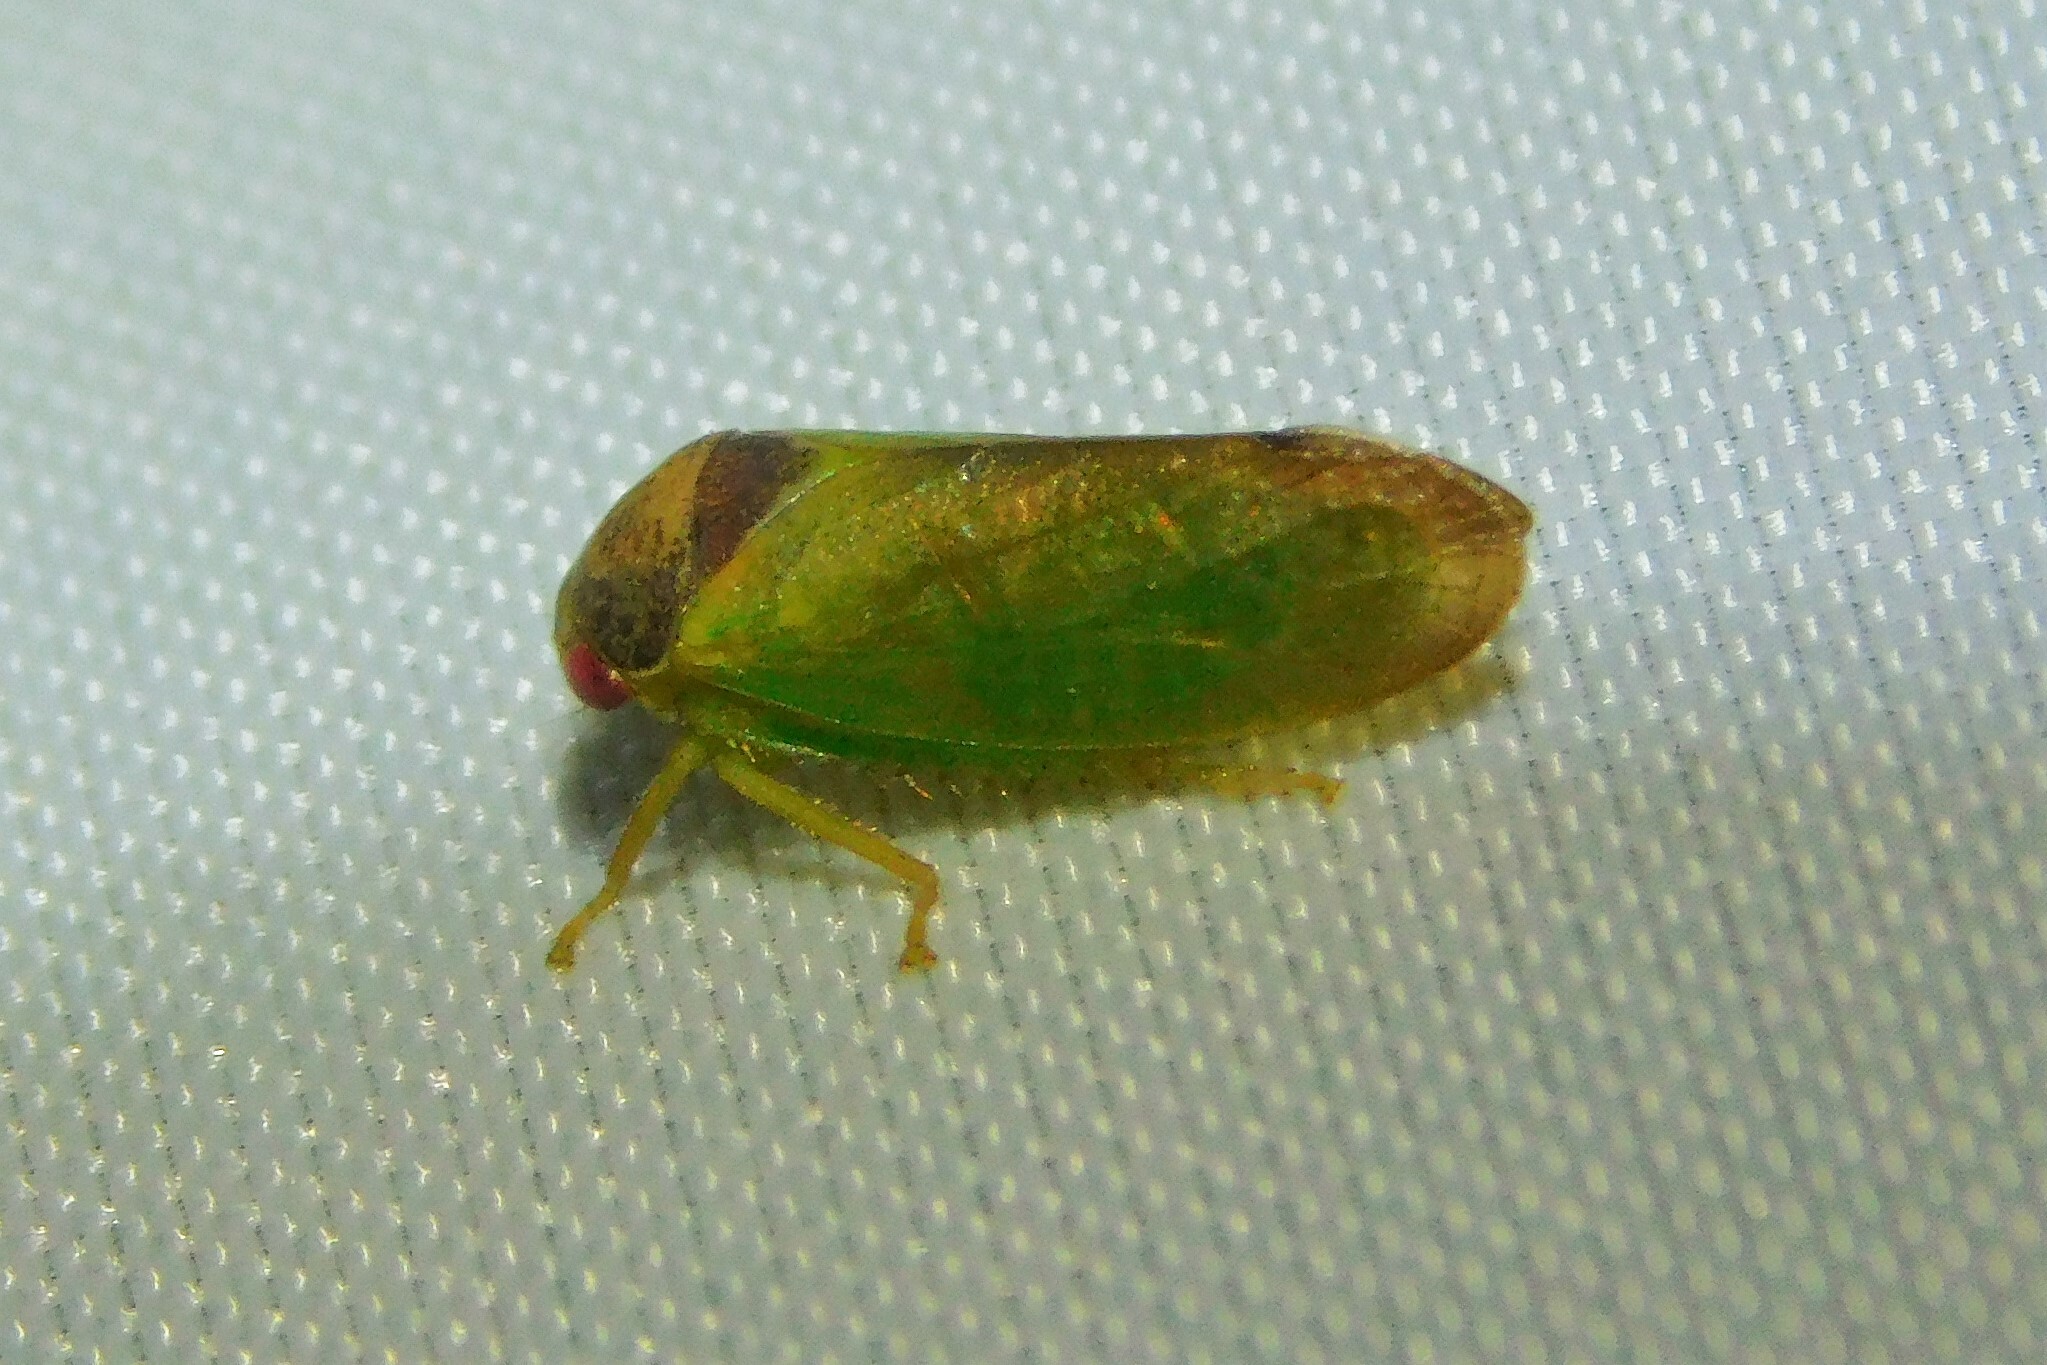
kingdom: Animalia
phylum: Arthropoda
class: Insecta
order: Hemiptera
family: Cicadellidae
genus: Iassus
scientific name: Iassus lanio
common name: Leafhopper
